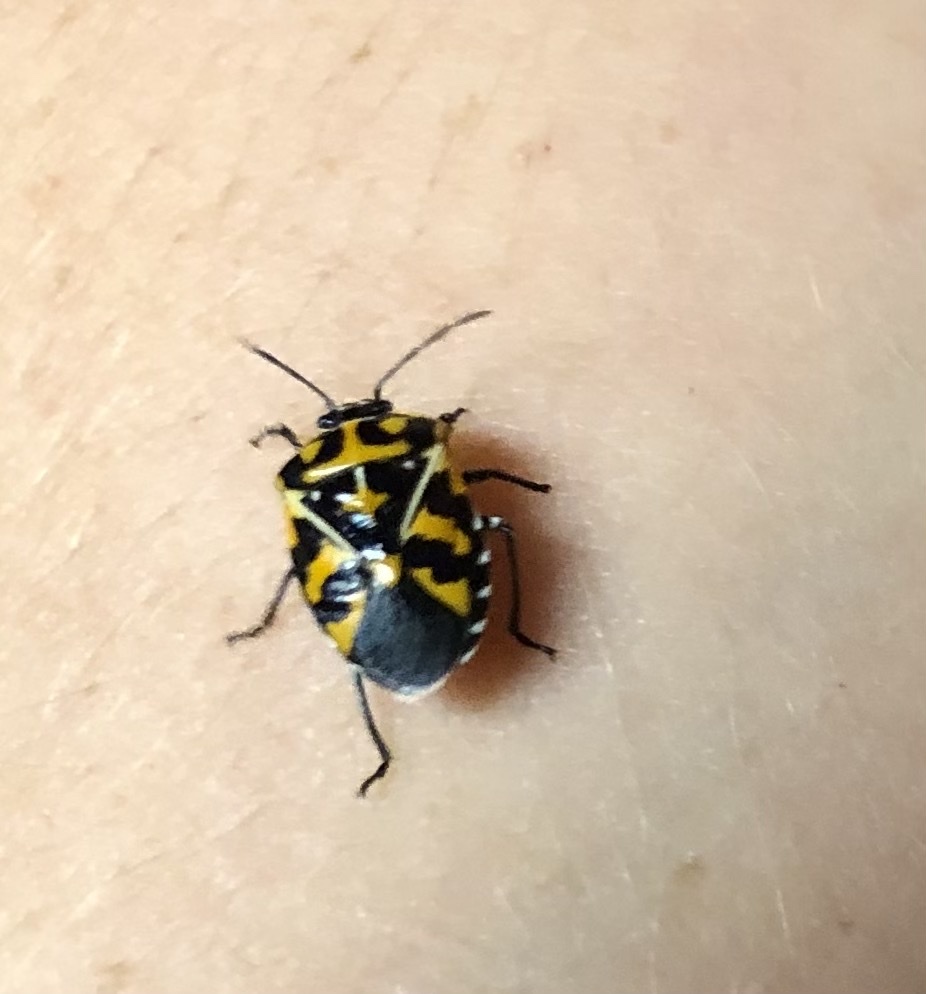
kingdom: Animalia
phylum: Arthropoda
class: Insecta
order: Hemiptera
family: Pentatomidae
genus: Murgantia
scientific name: Murgantia histrionica
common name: Harlequin bug
